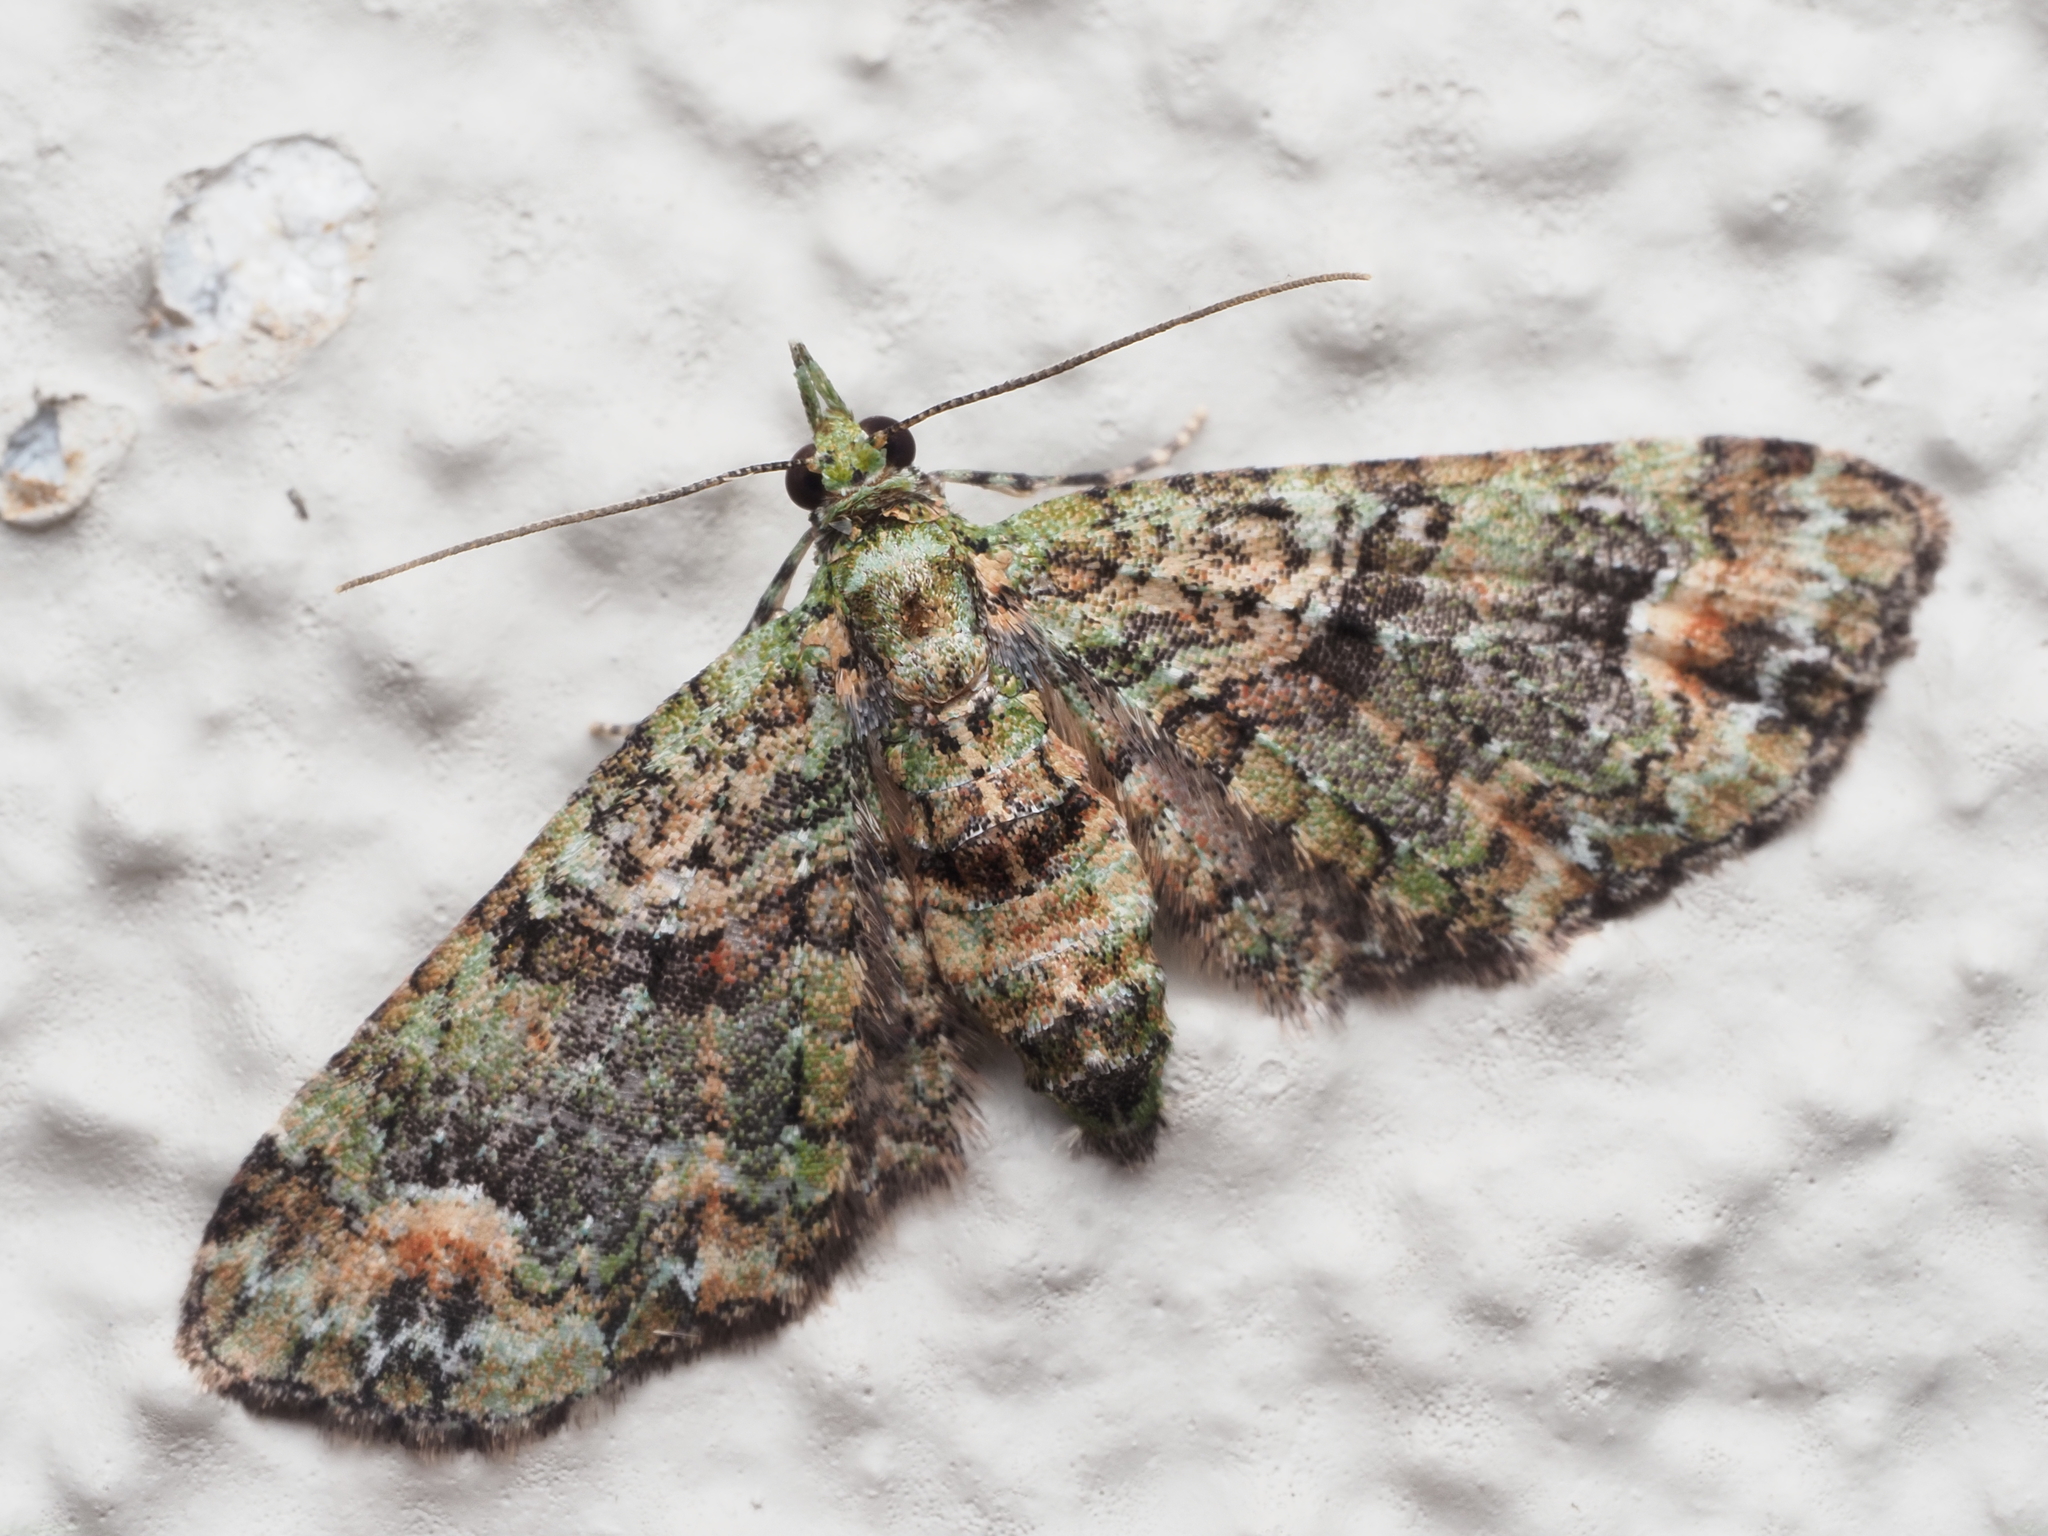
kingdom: Animalia
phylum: Arthropoda
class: Insecta
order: Lepidoptera
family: Geometridae
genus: Idaea
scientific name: Idaea mutanda
